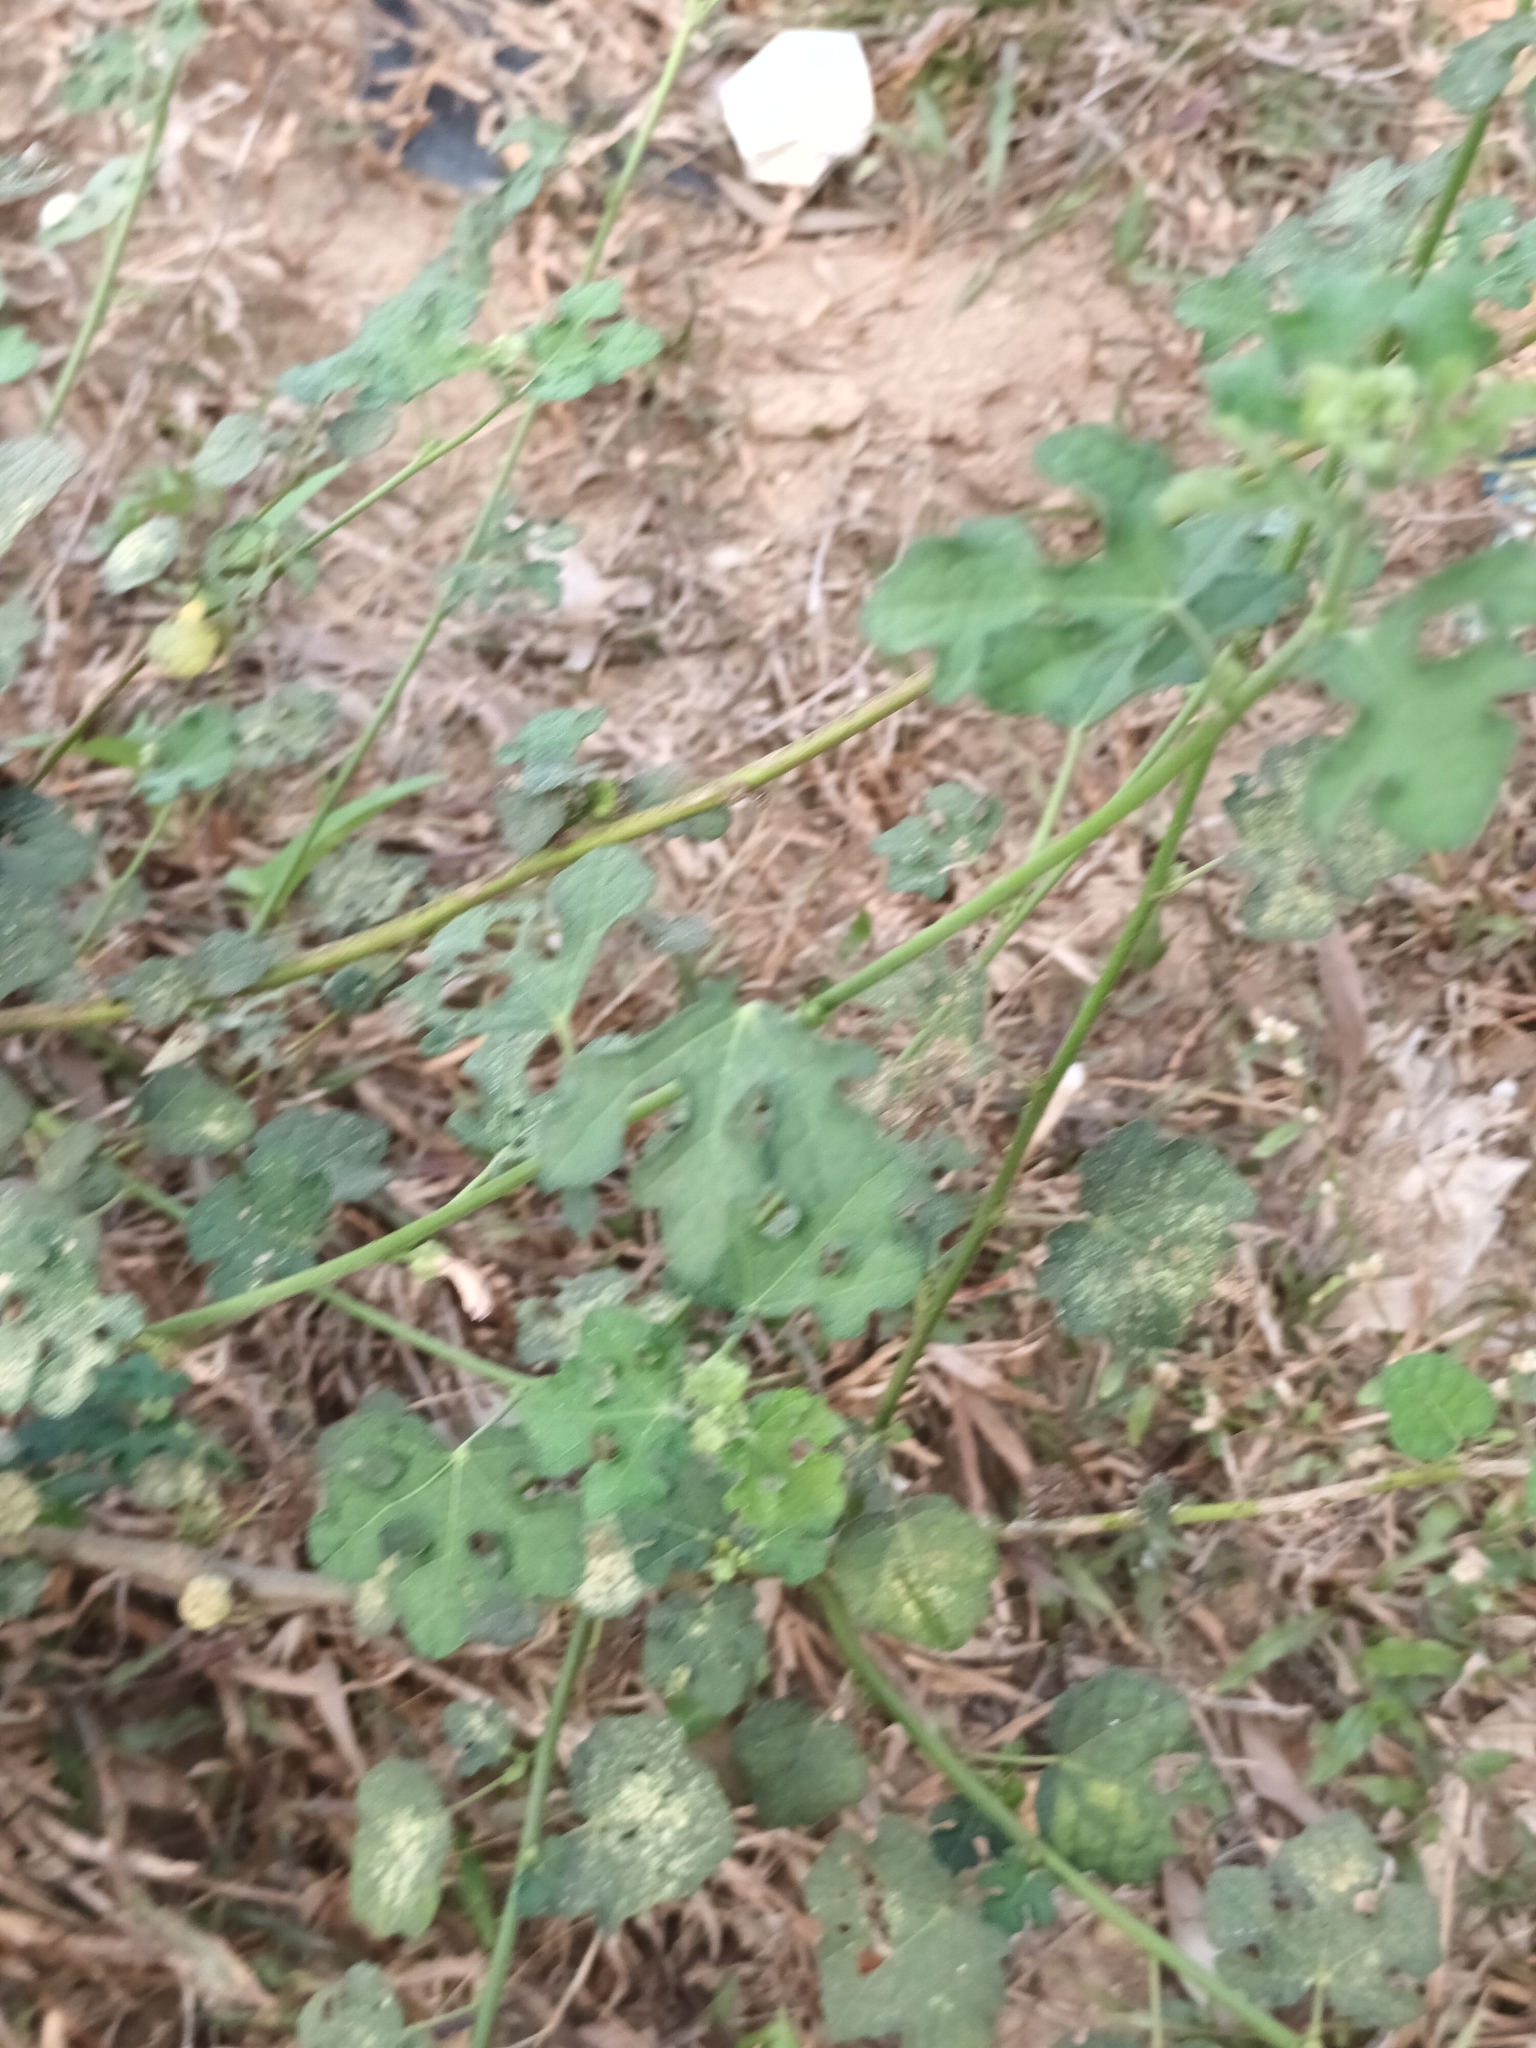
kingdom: Plantae
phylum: Tracheophyta
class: Magnoliopsida
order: Malvales
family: Malvaceae
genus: Urena
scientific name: Urena lobata
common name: Caesarweed
